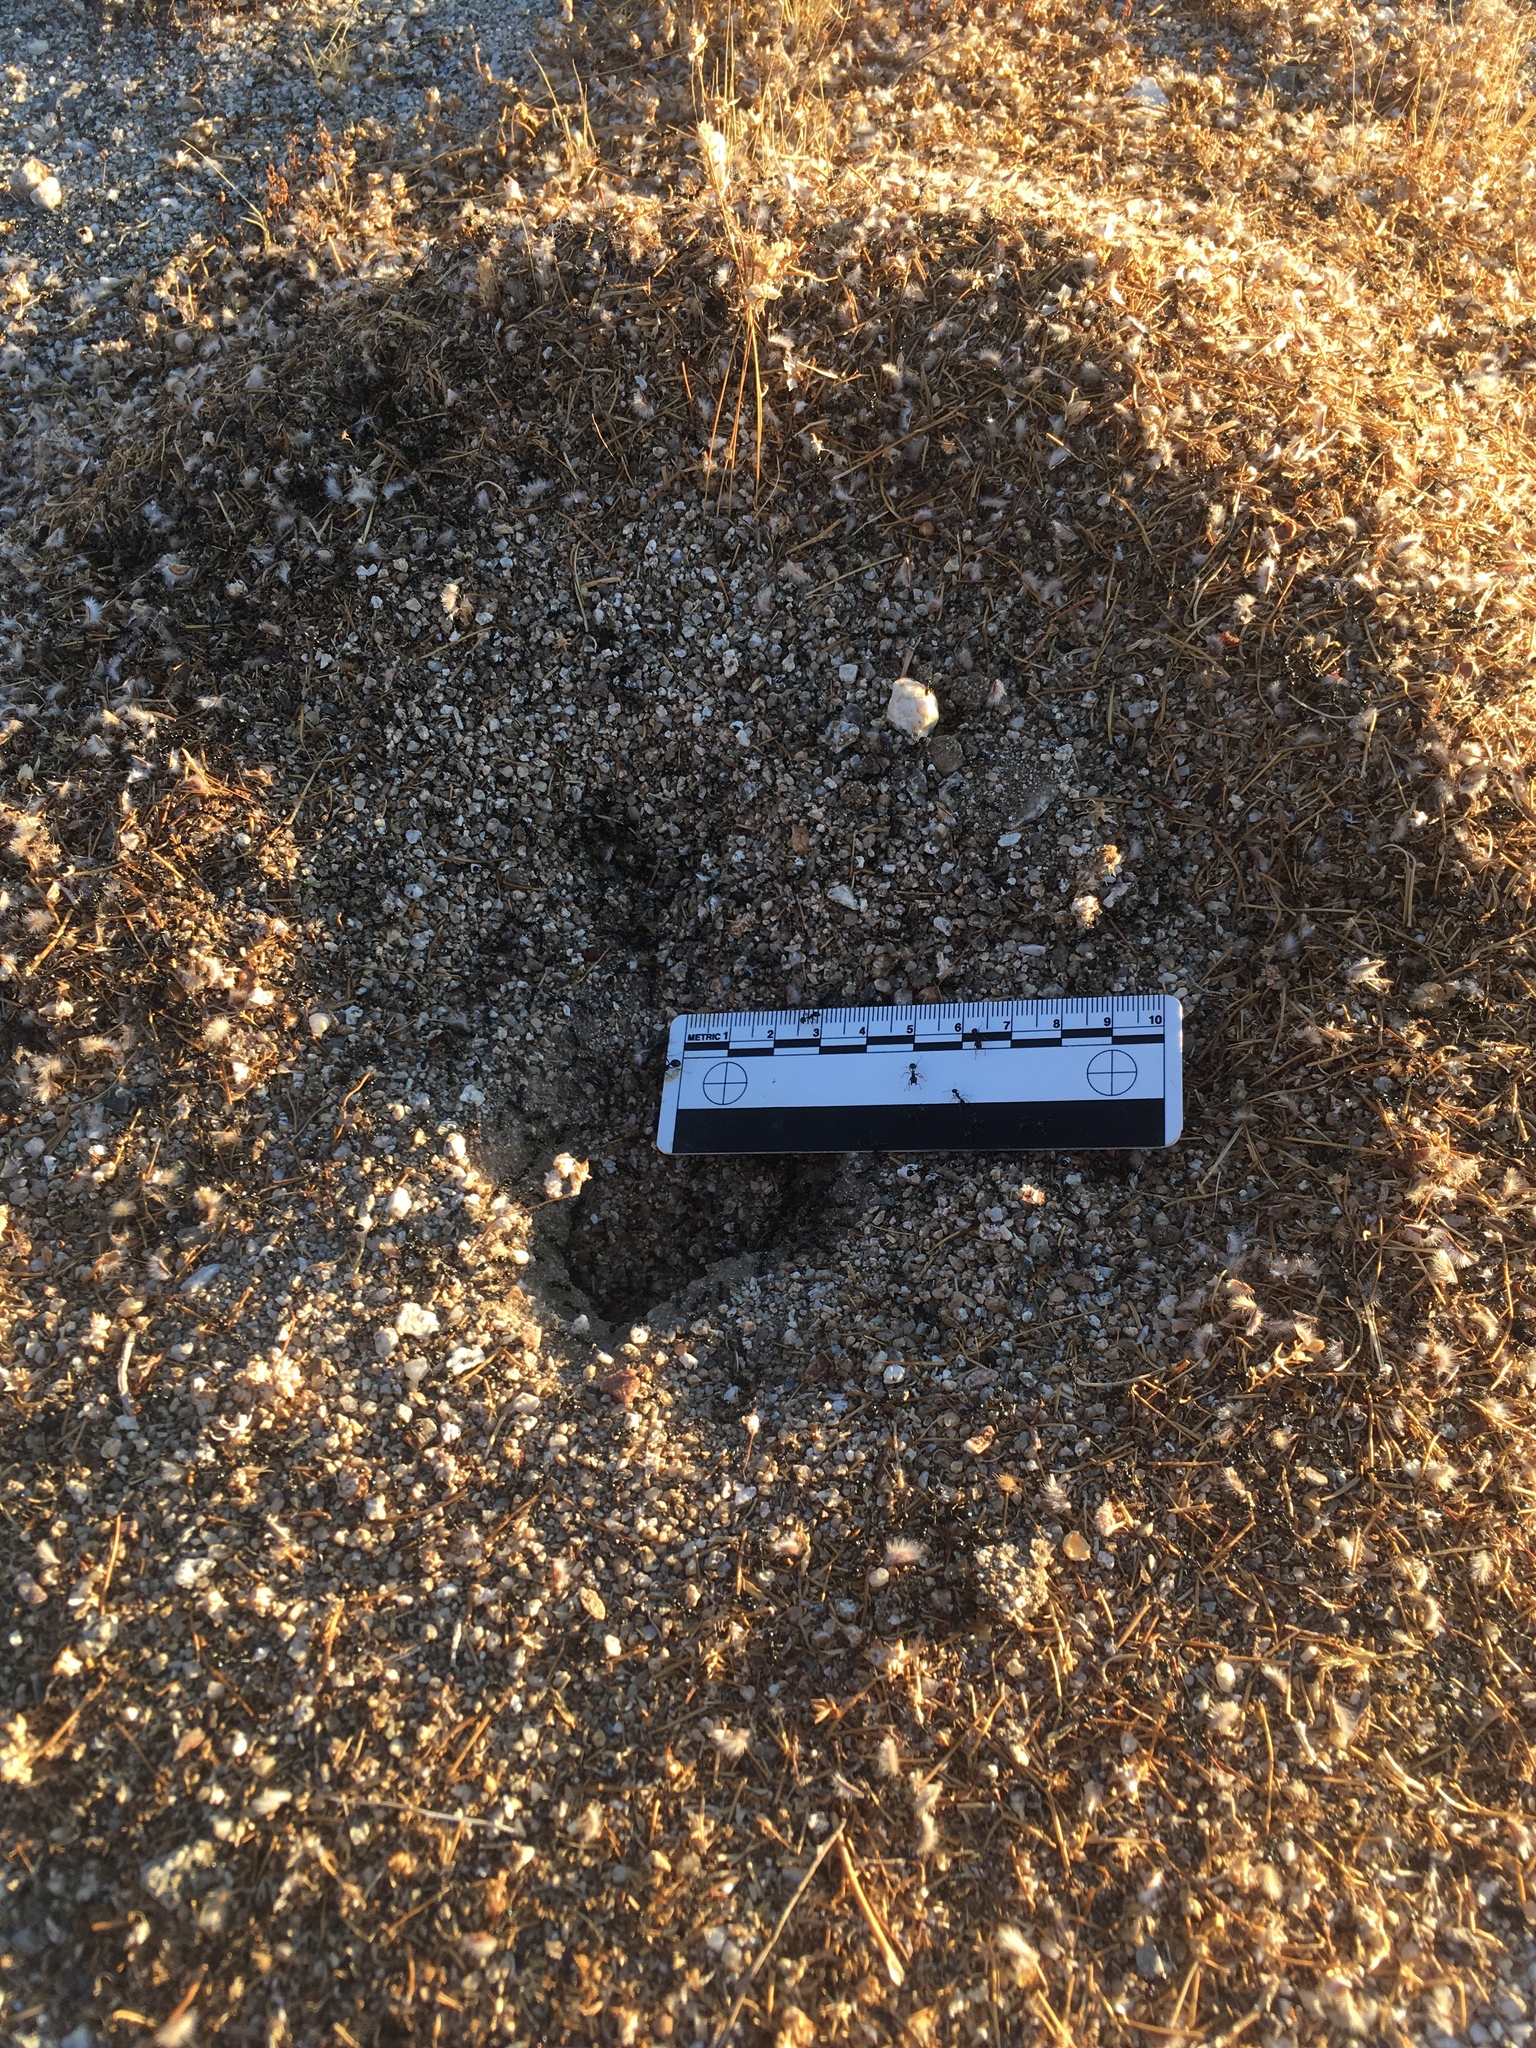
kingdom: Animalia
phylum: Arthropoda
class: Insecta
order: Hymenoptera
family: Formicidae
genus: Messor
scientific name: Messor pergandei
